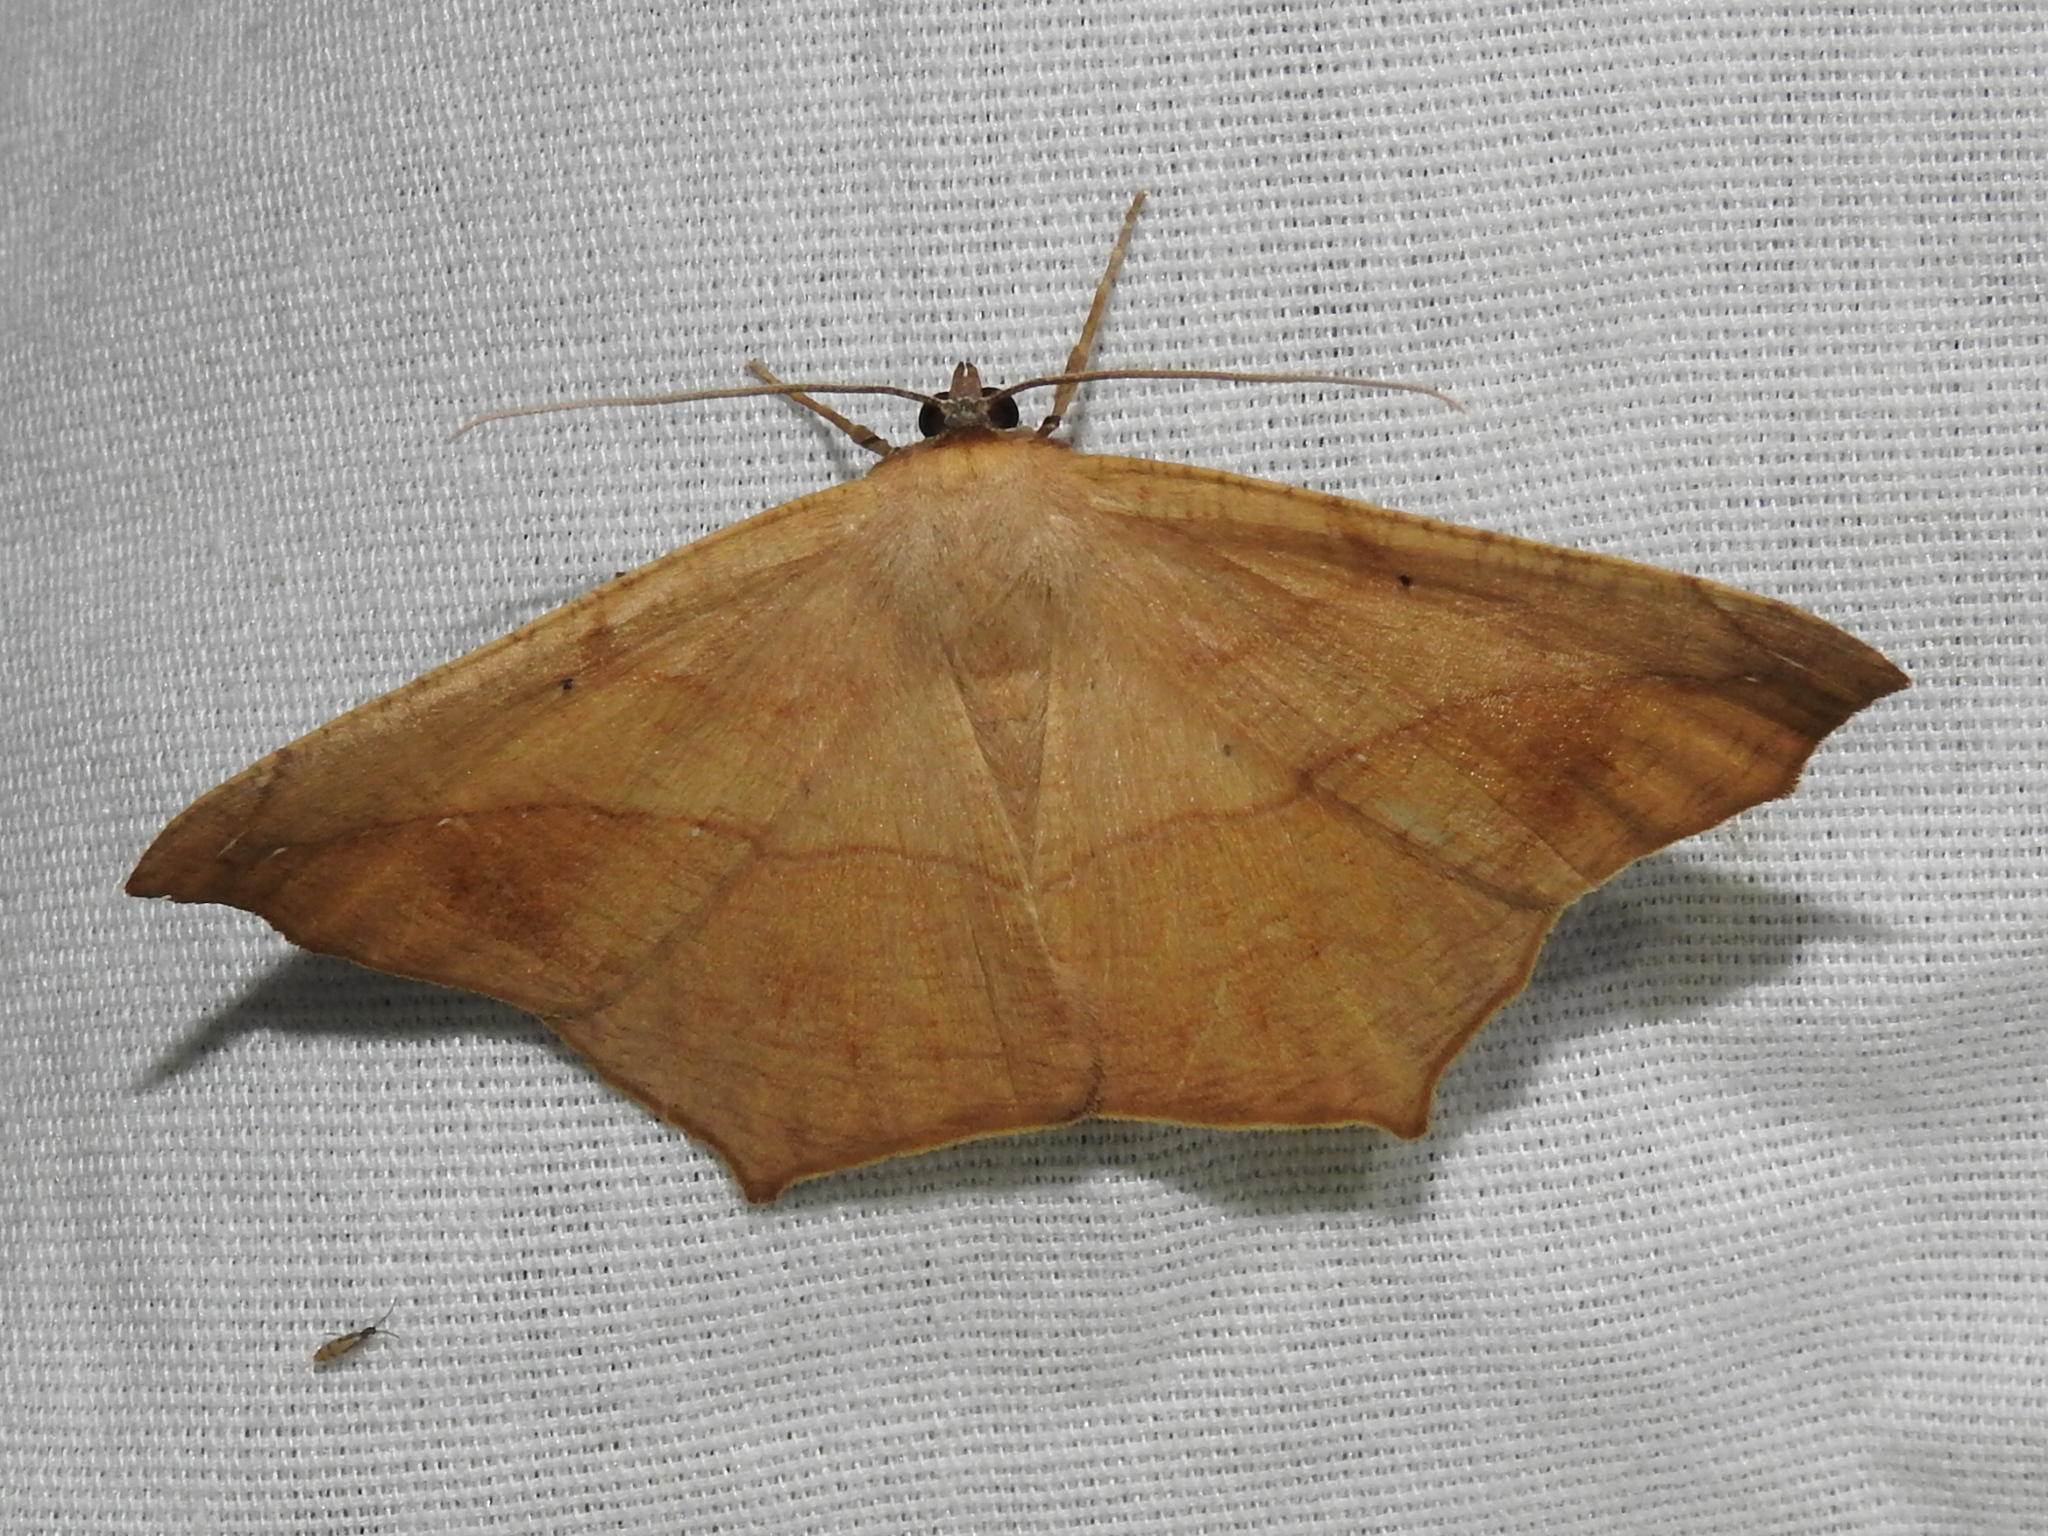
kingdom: Animalia
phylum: Arthropoda
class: Insecta
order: Lepidoptera
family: Geometridae
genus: Prochoerodes
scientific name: Prochoerodes lineola
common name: Large maple spanworm
